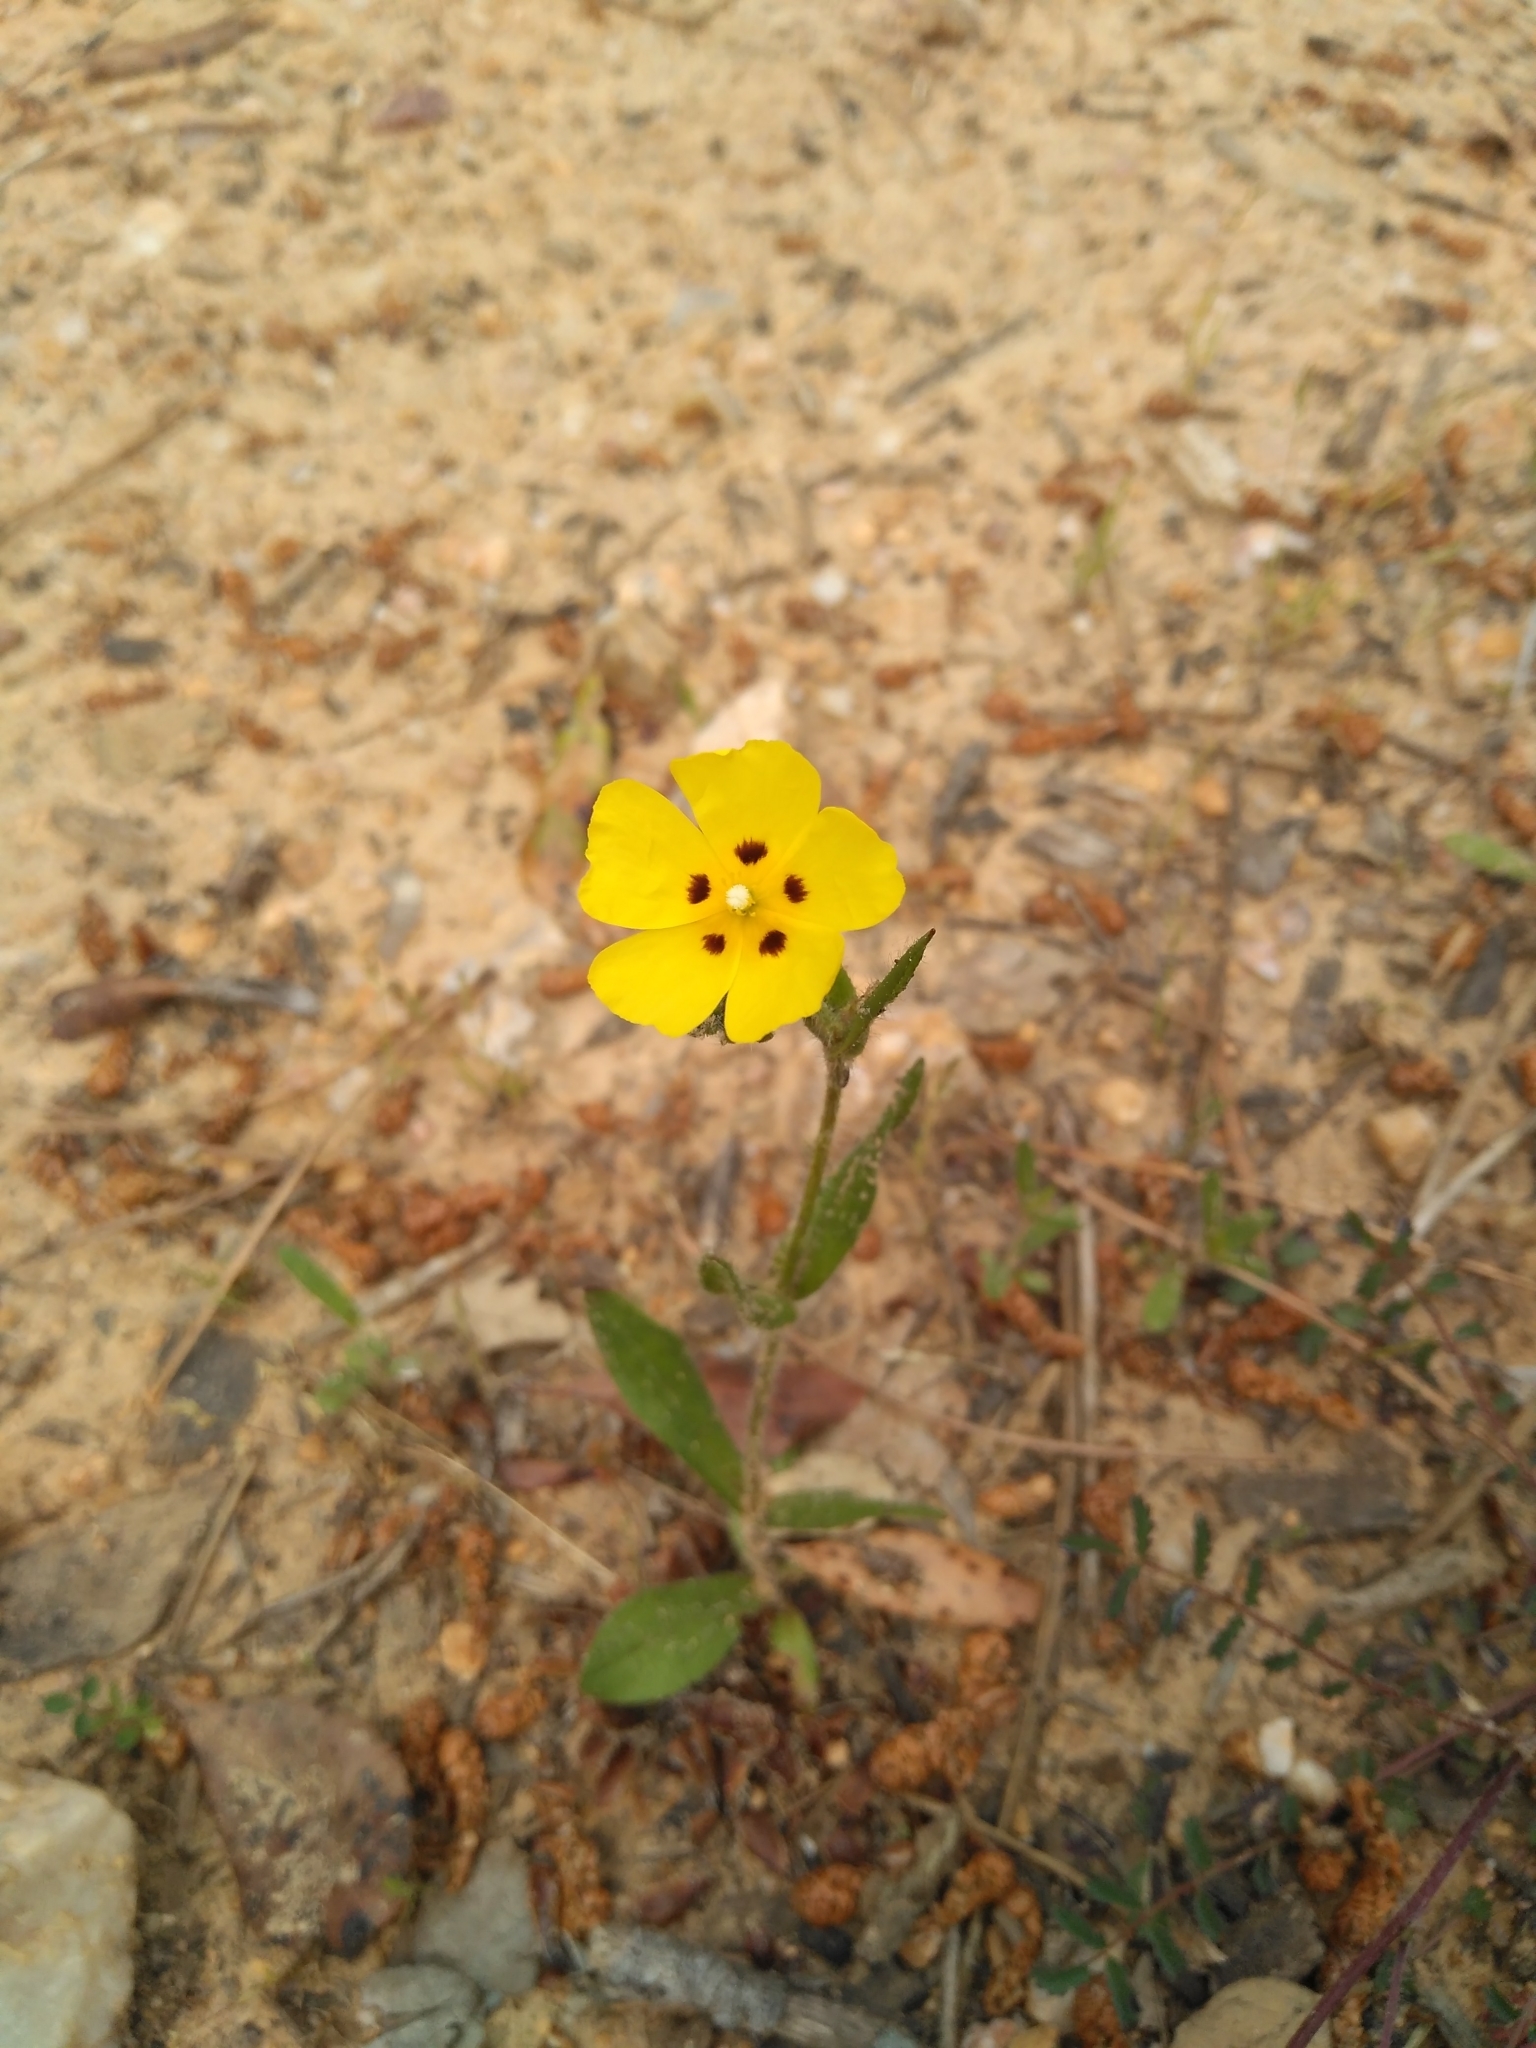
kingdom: Plantae
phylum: Tracheophyta
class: Magnoliopsida
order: Malvales
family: Cistaceae
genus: Tuberaria
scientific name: Tuberaria guttata
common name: Spotted rock-rose
